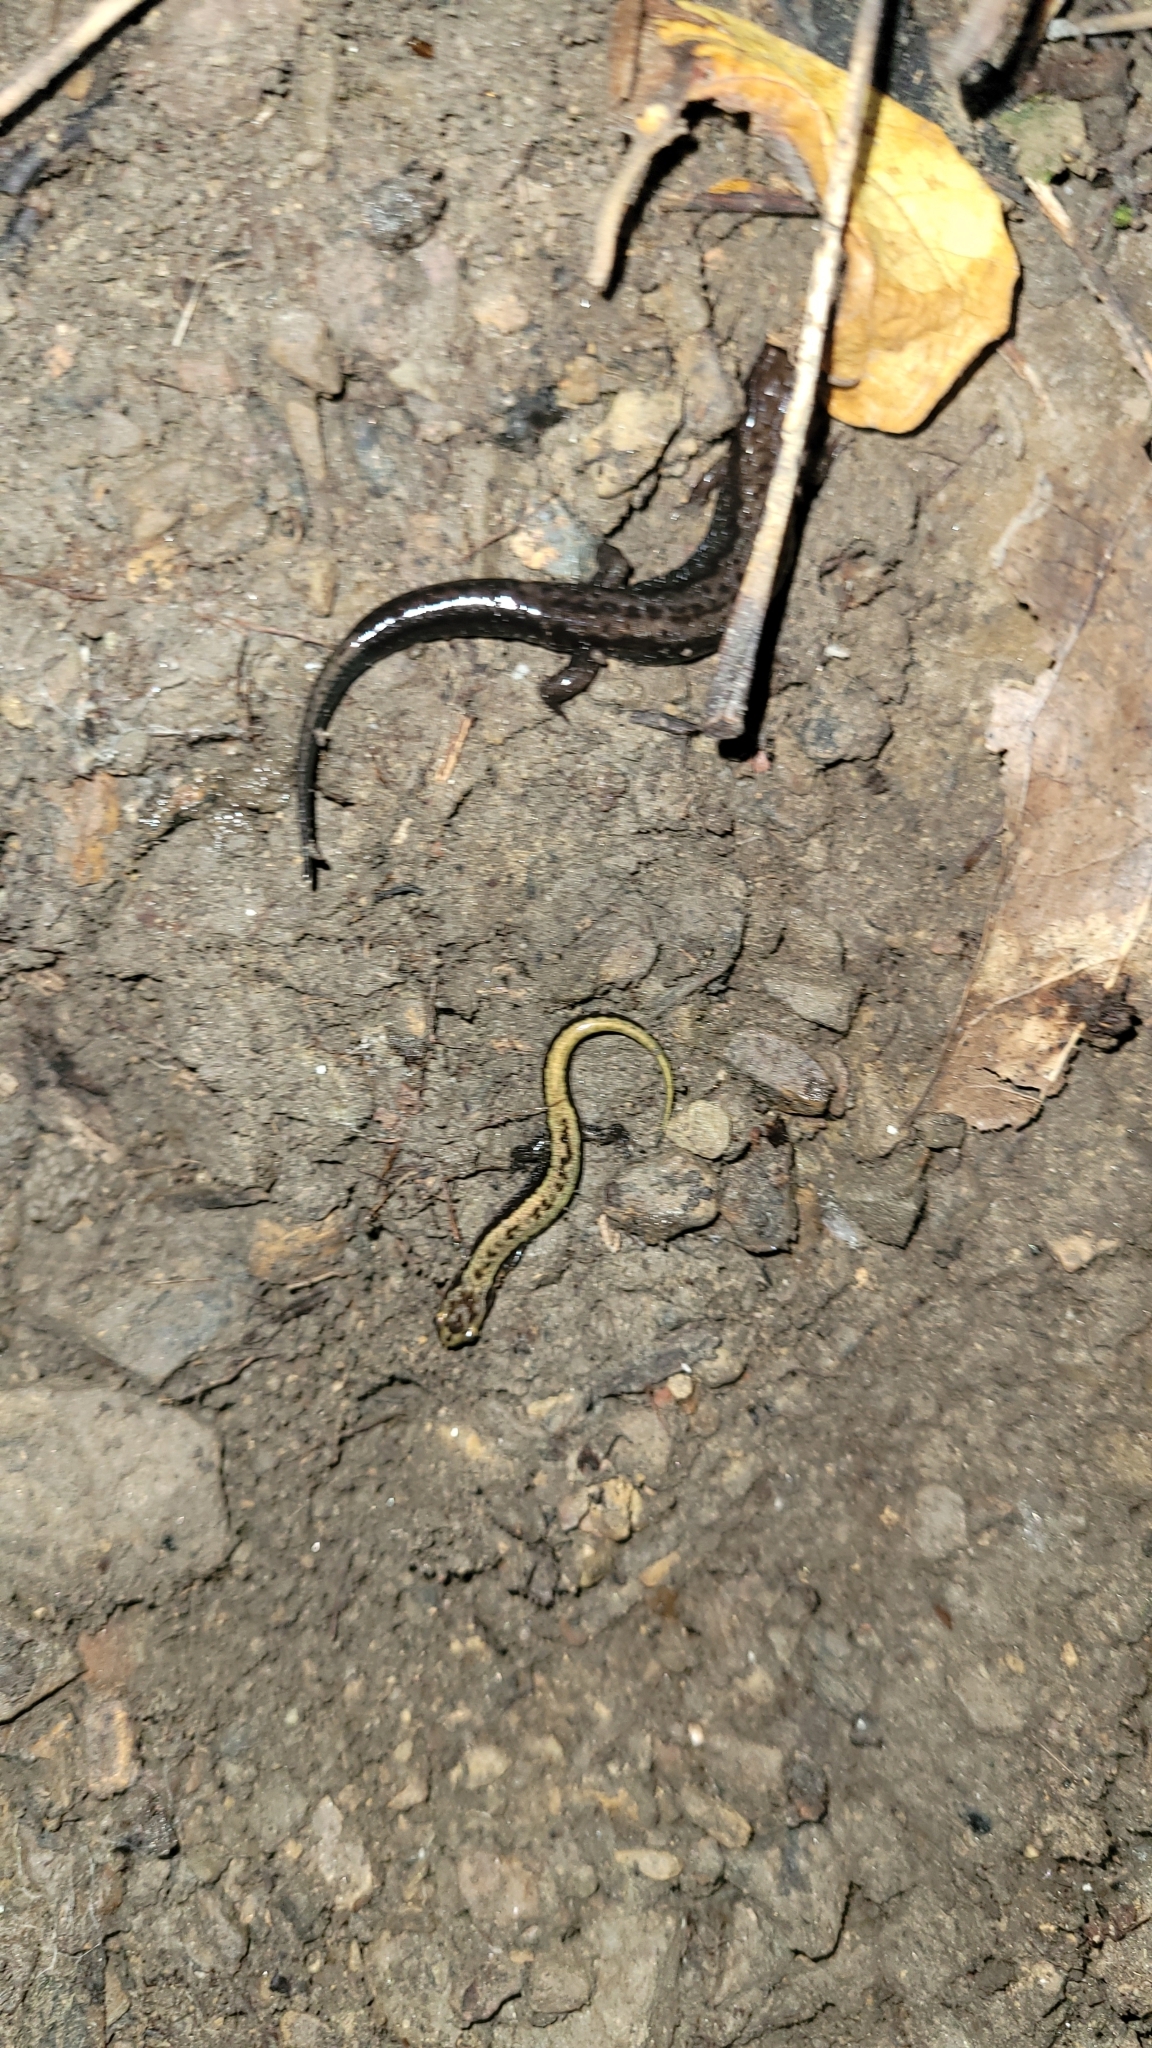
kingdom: Animalia
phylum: Chordata
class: Amphibia
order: Caudata
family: Plethodontidae
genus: Desmognathus
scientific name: Desmognathus ochrophaeus
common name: Allegheny mountain dusky salamander
